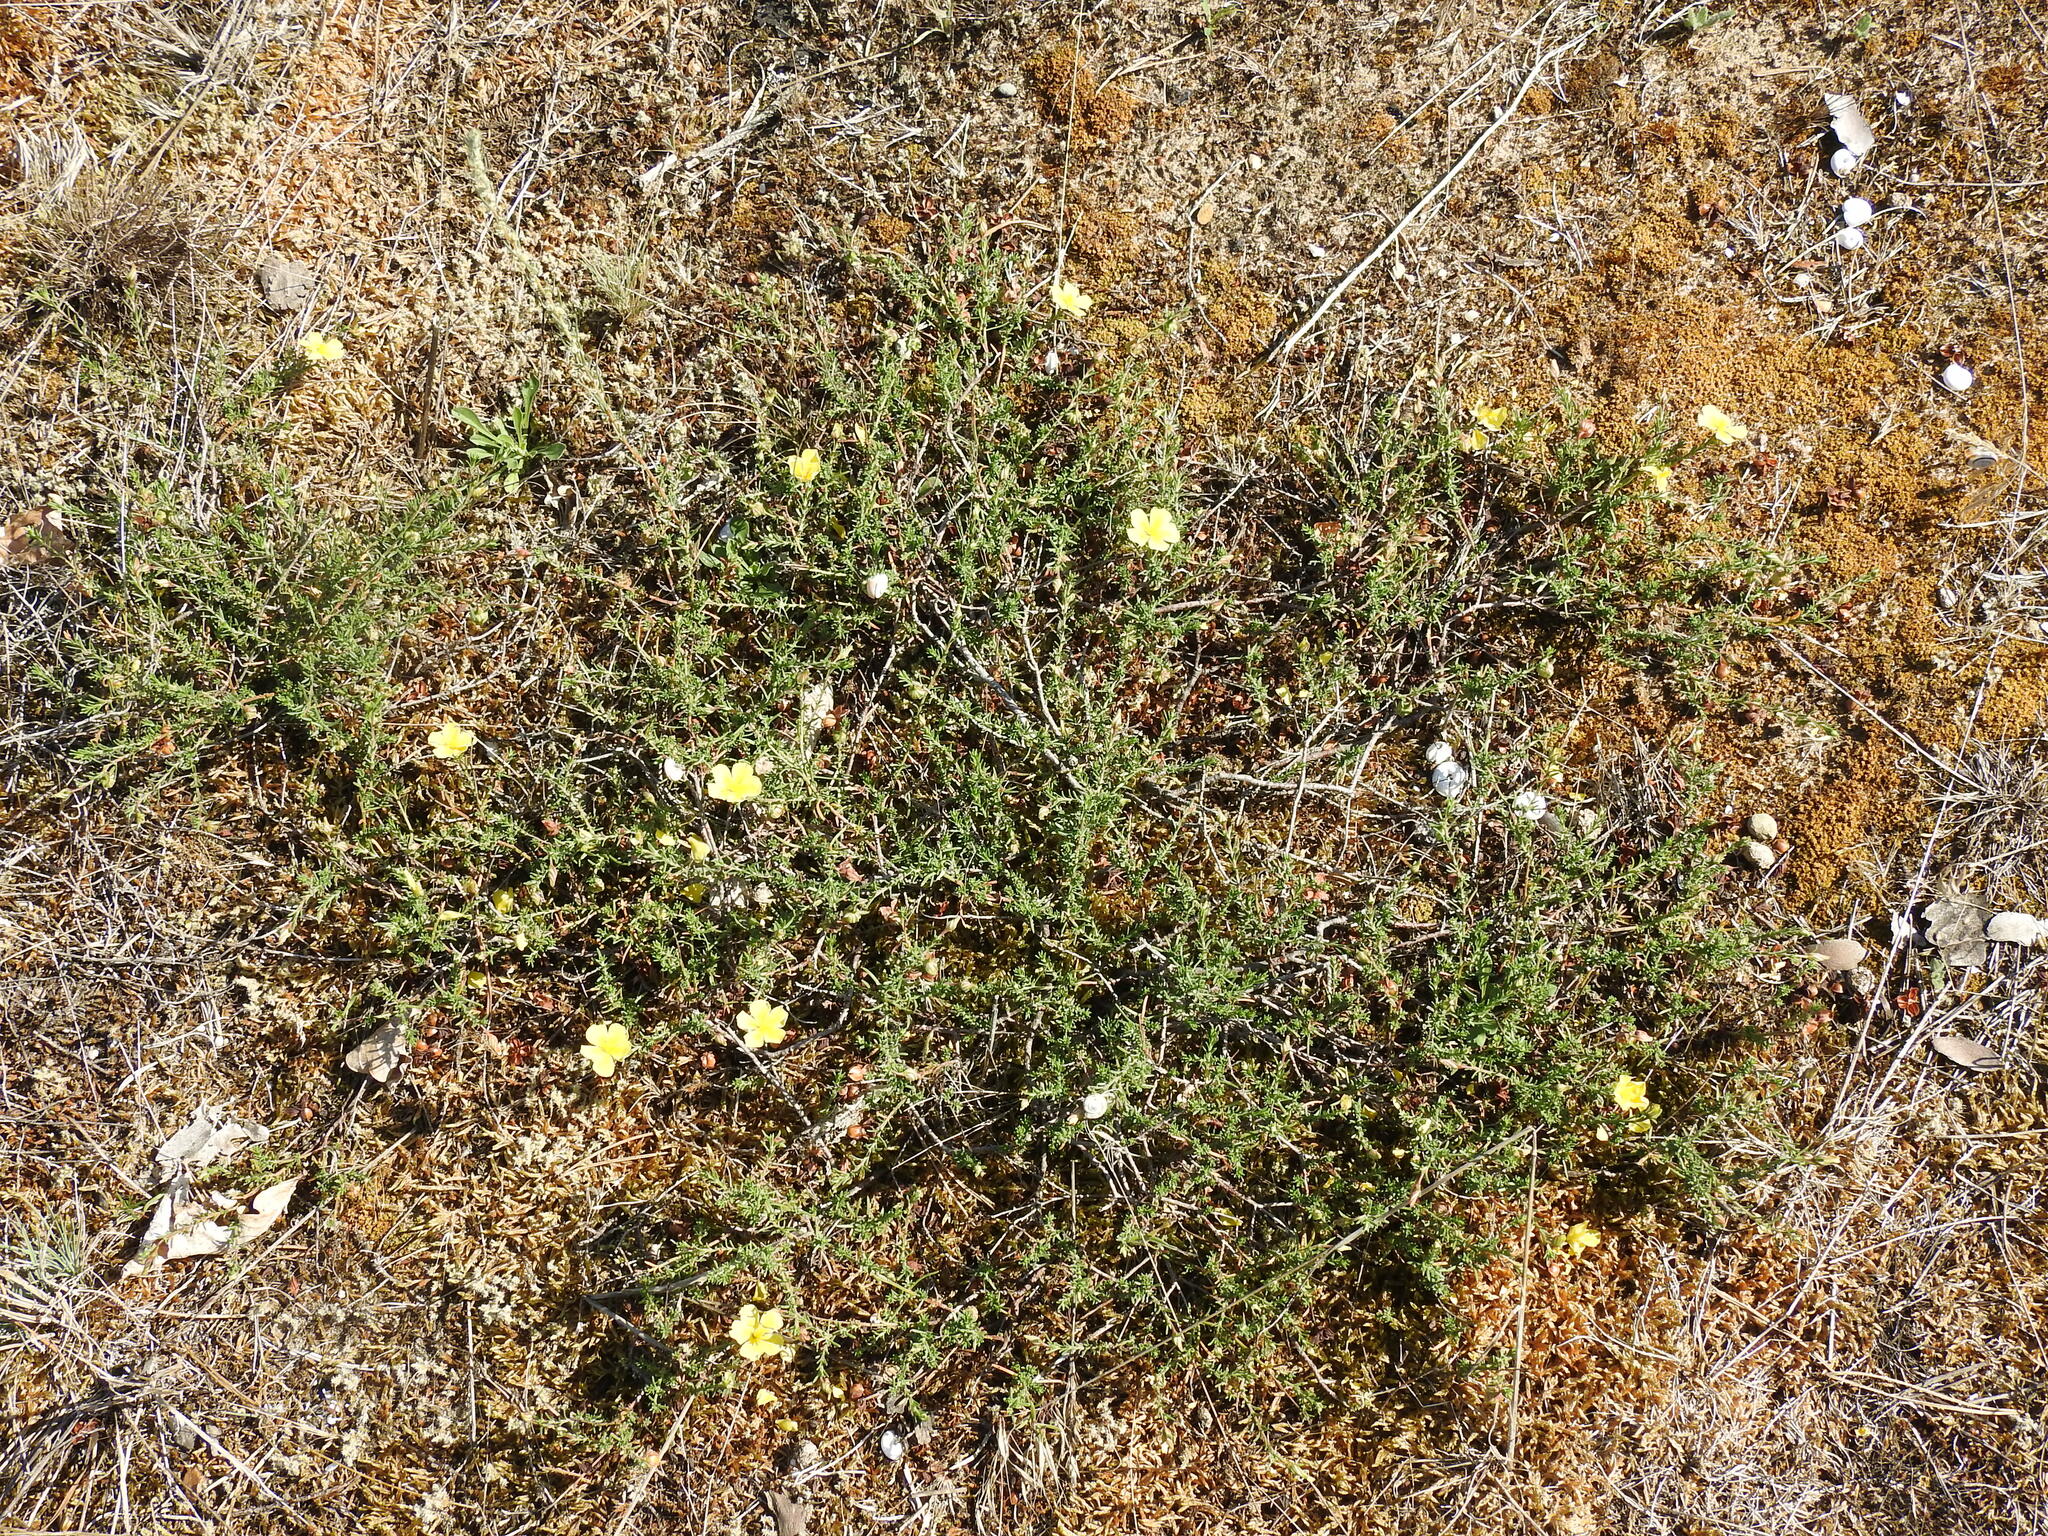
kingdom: Plantae
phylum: Tracheophyta
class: Magnoliopsida
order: Malvales
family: Cistaceae
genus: Fumana
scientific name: Fumana procumbens
